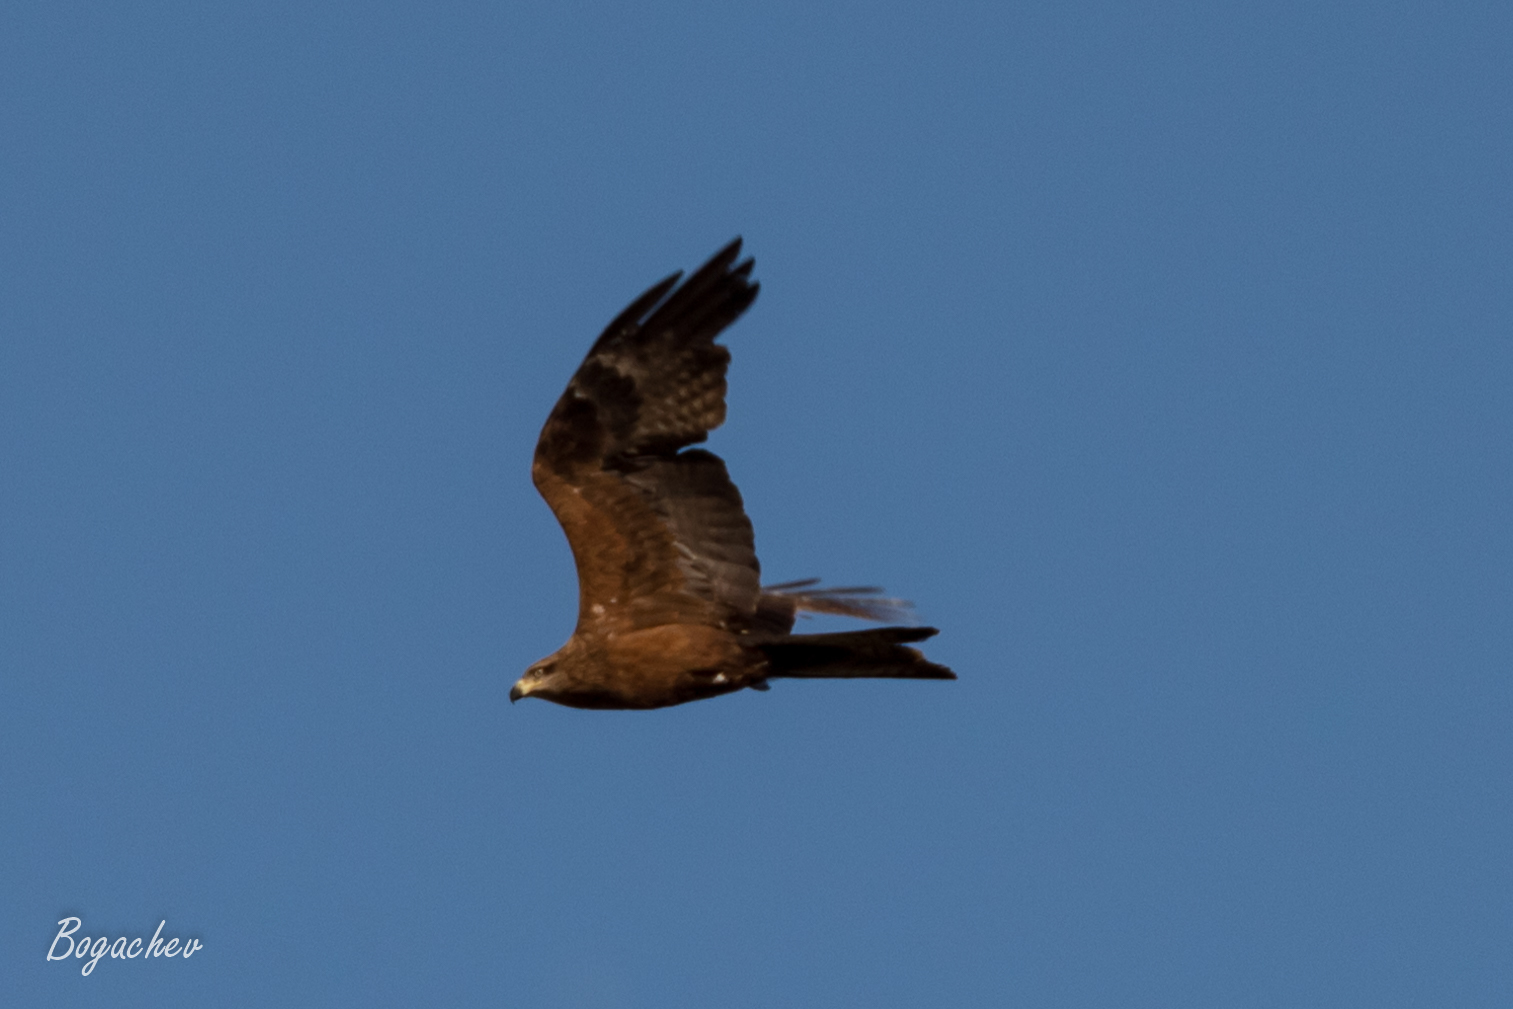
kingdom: Animalia
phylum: Chordata
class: Aves
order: Accipitriformes
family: Accipitridae
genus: Milvus
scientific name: Milvus migrans
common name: Black kite
